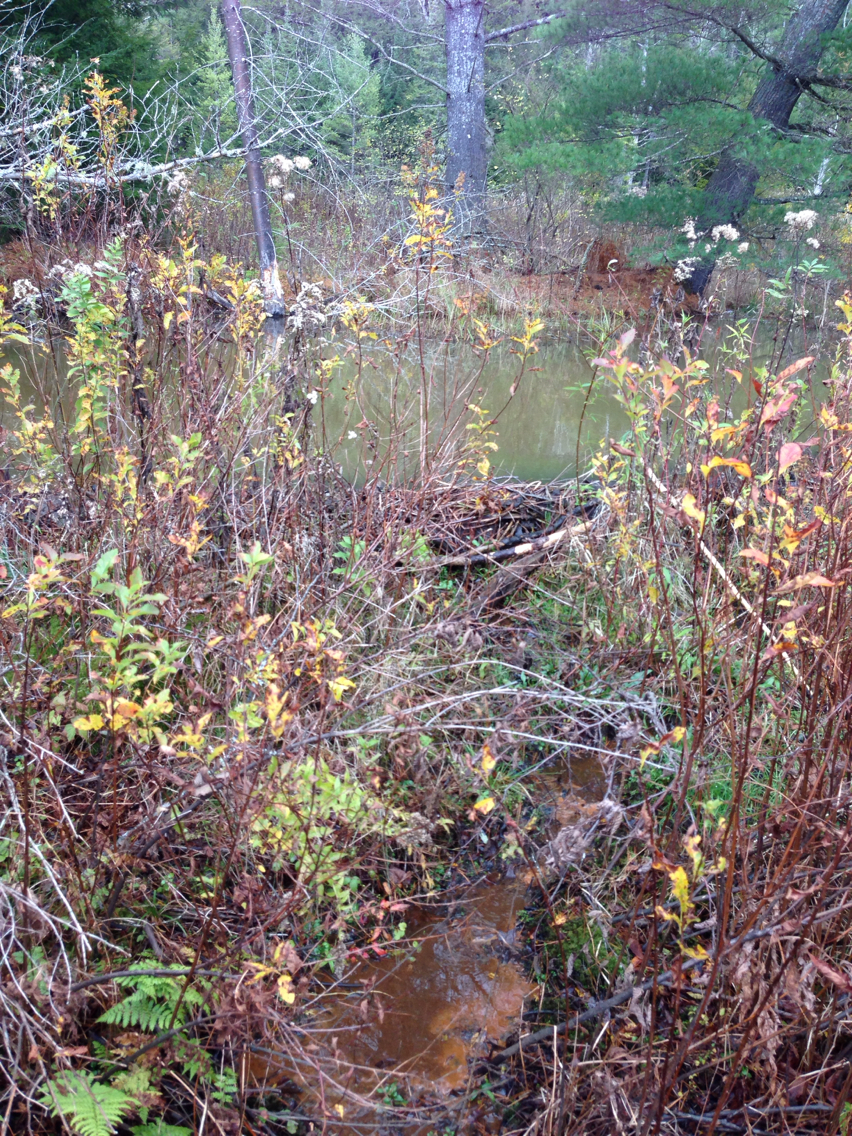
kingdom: Animalia
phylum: Chordata
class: Mammalia
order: Rodentia
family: Castoridae
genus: Castor
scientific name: Castor canadensis
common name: American beaver
